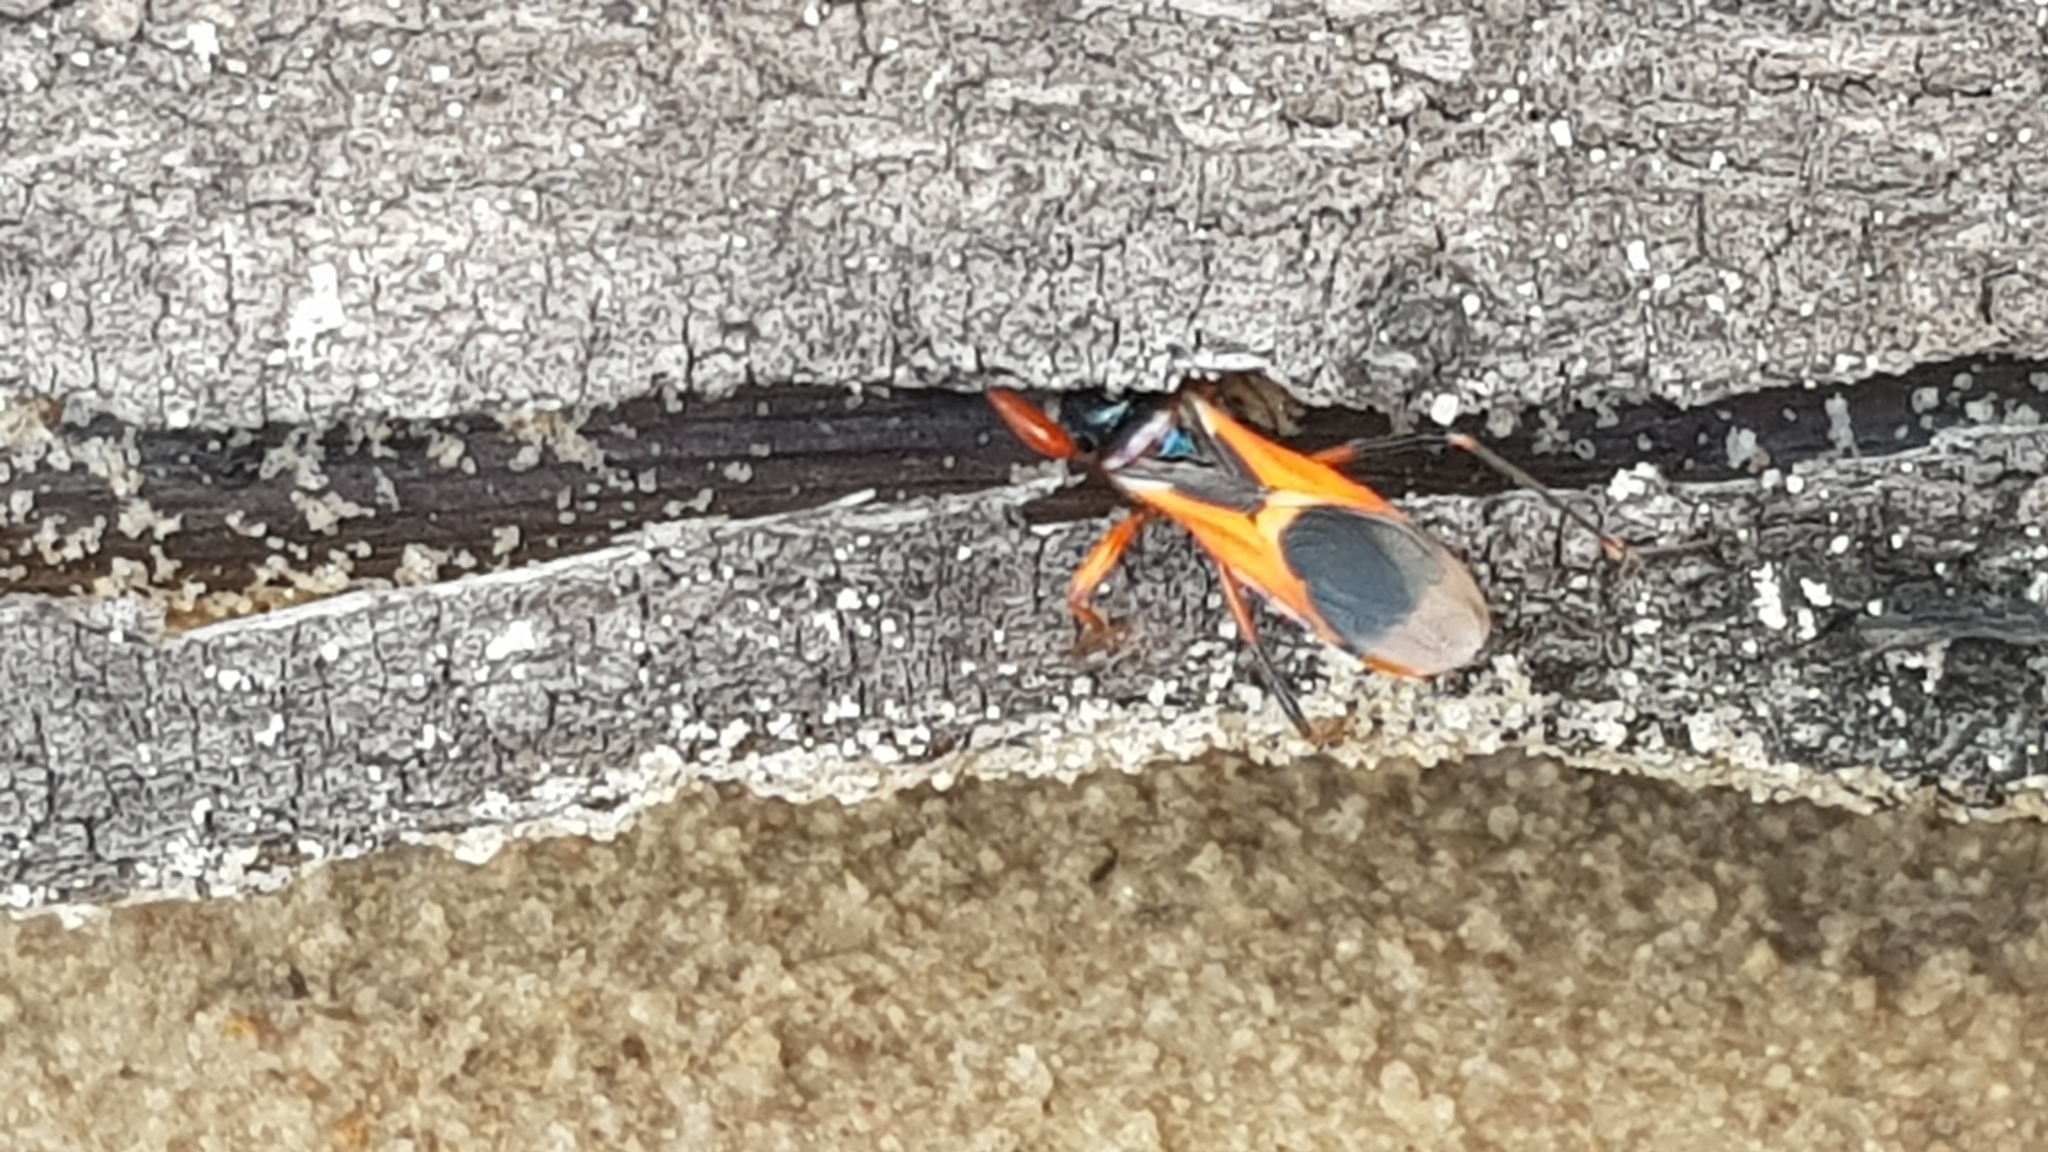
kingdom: Animalia
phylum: Arthropoda
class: Insecta
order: Hemiptera
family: Reduviidae
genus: Ectomocoris
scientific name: Ectomocoris ornatus
